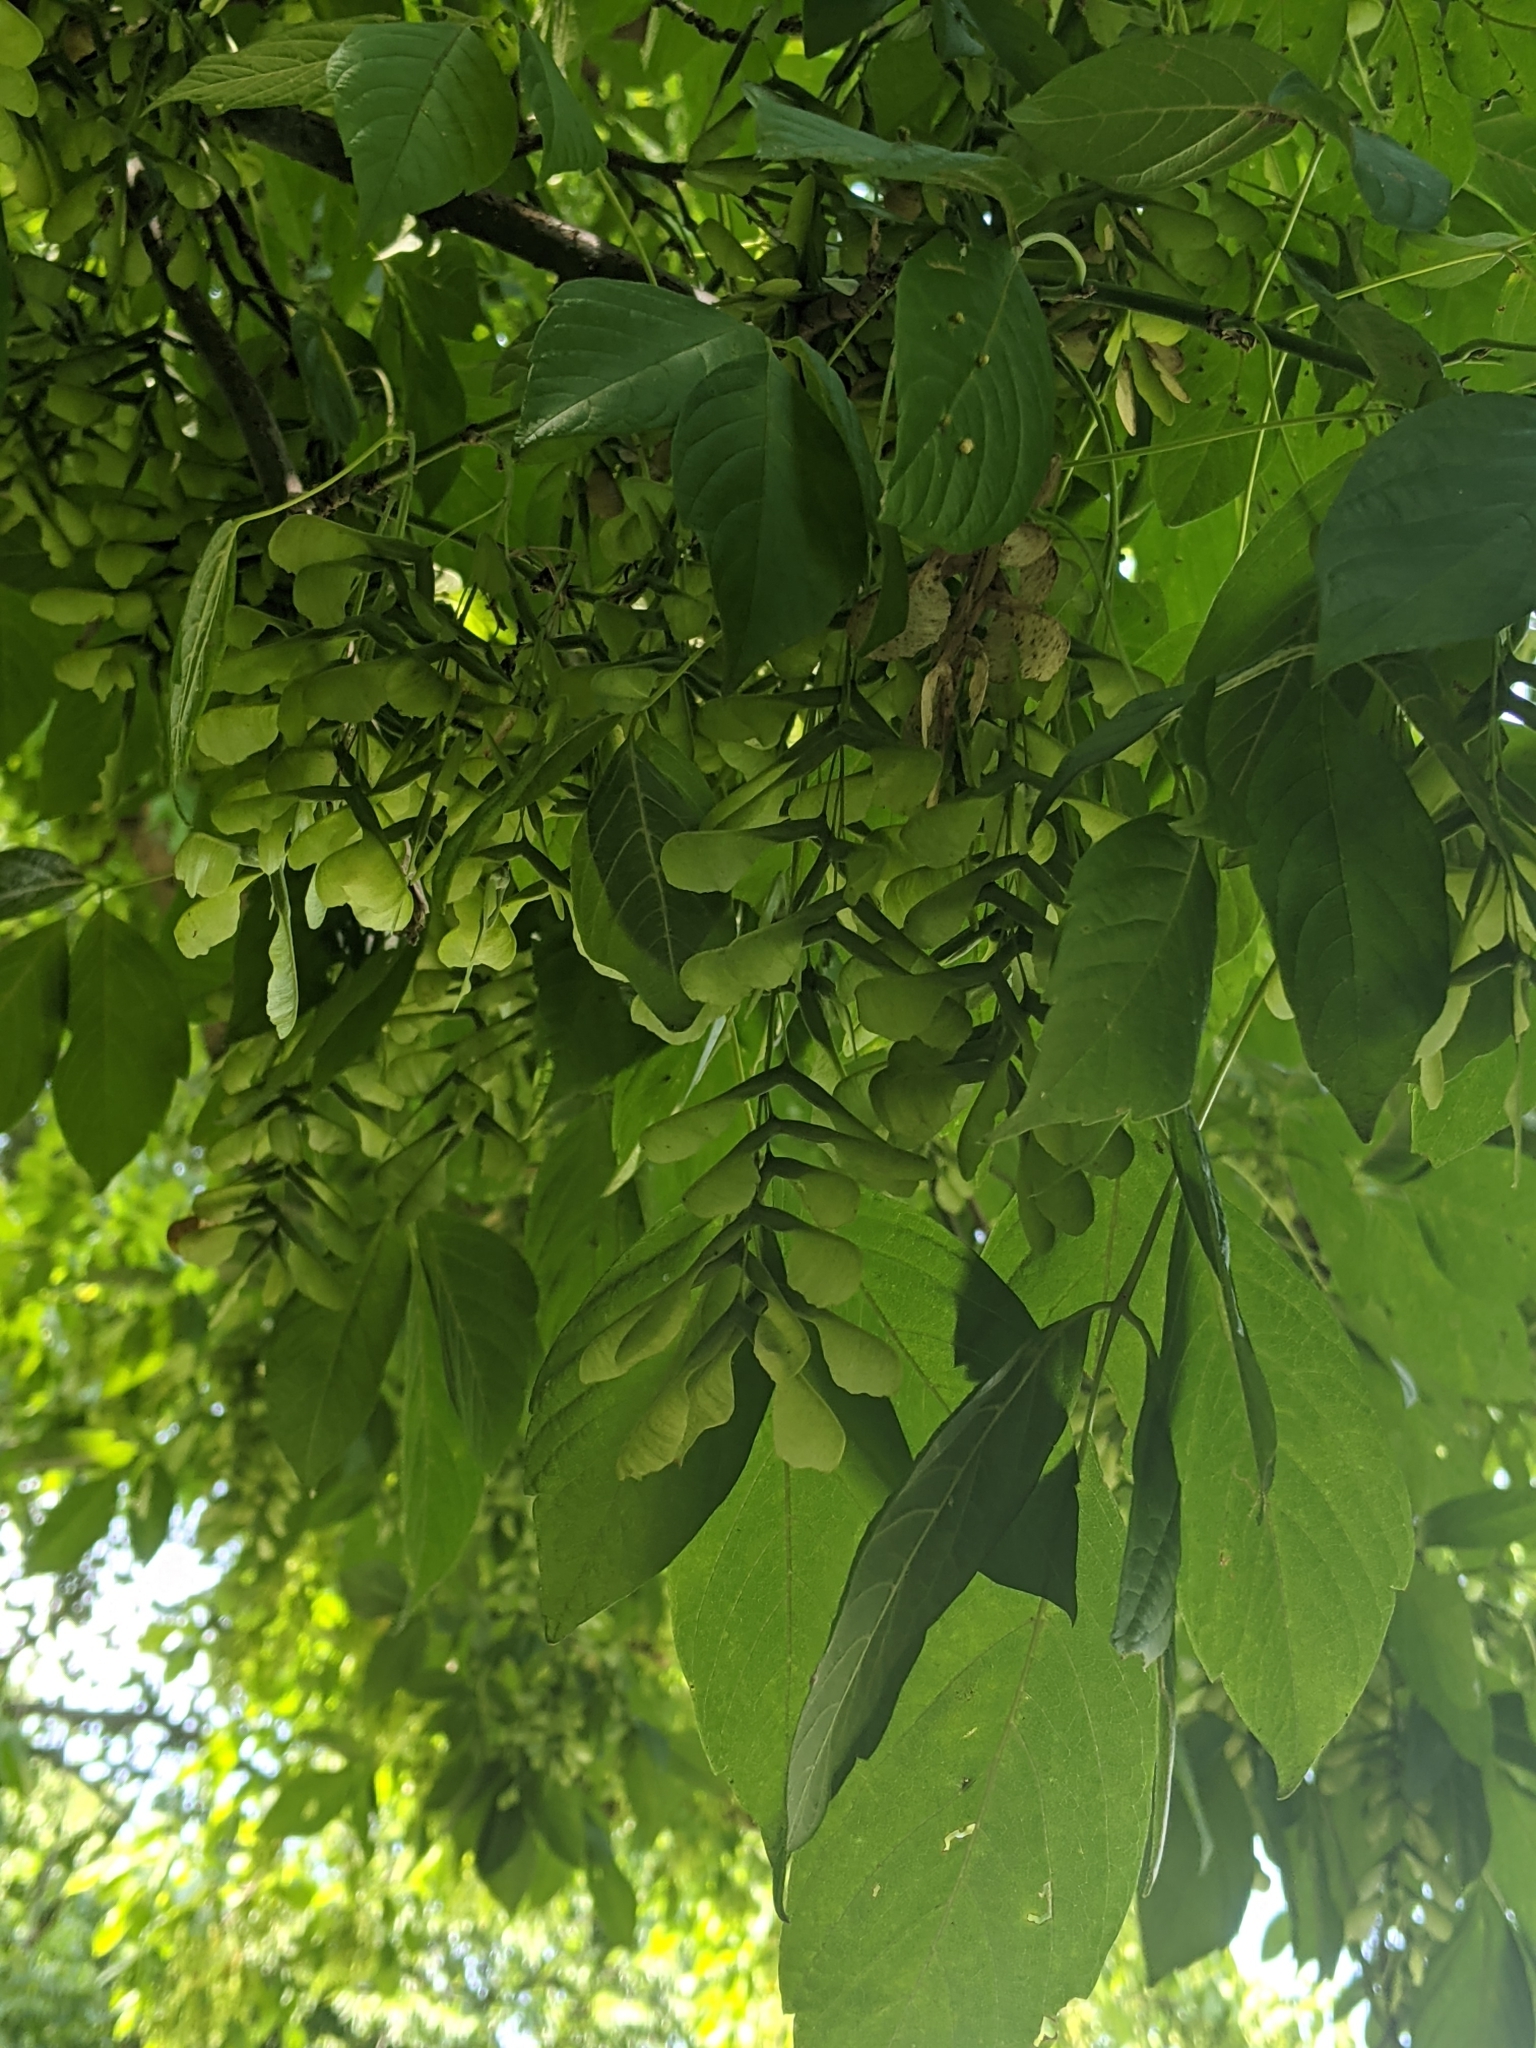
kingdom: Plantae
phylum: Tracheophyta
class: Magnoliopsida
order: Sapindales
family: Sapindaceae
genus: Acer
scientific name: Acer negundo
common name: Ashleaf maple
